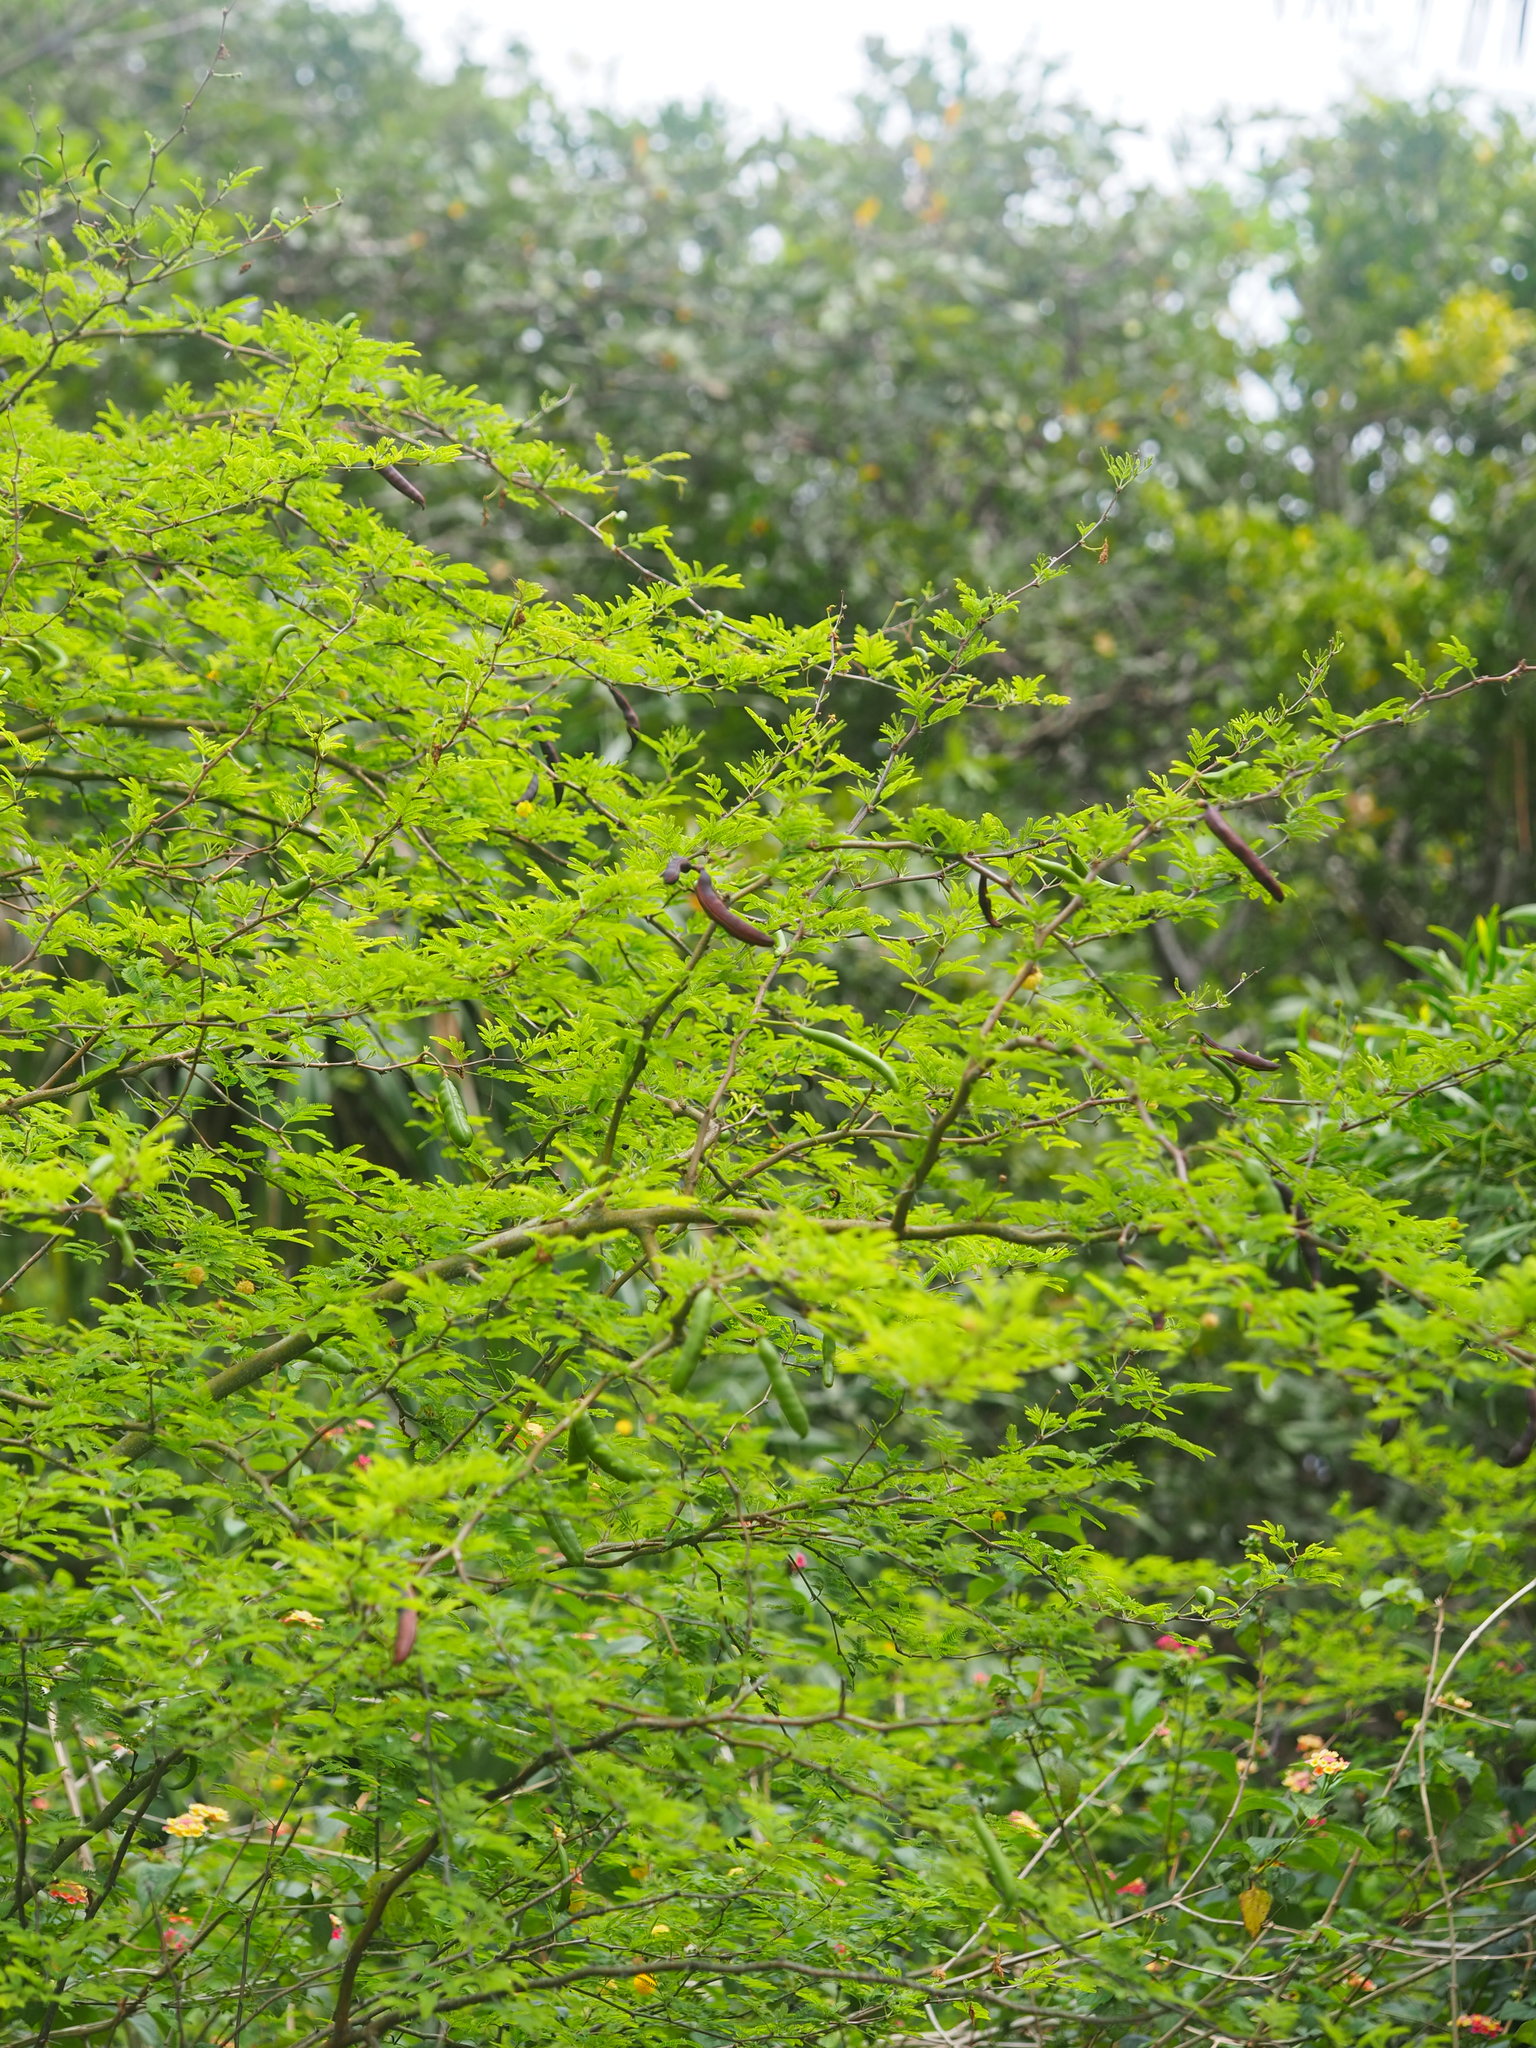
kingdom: Plantae
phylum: Tracheophyta
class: Magnoliopsida
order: Fabales
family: Fabaceae
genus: Vachellia
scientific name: Vachellia farnesiana
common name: Sweet acacia
